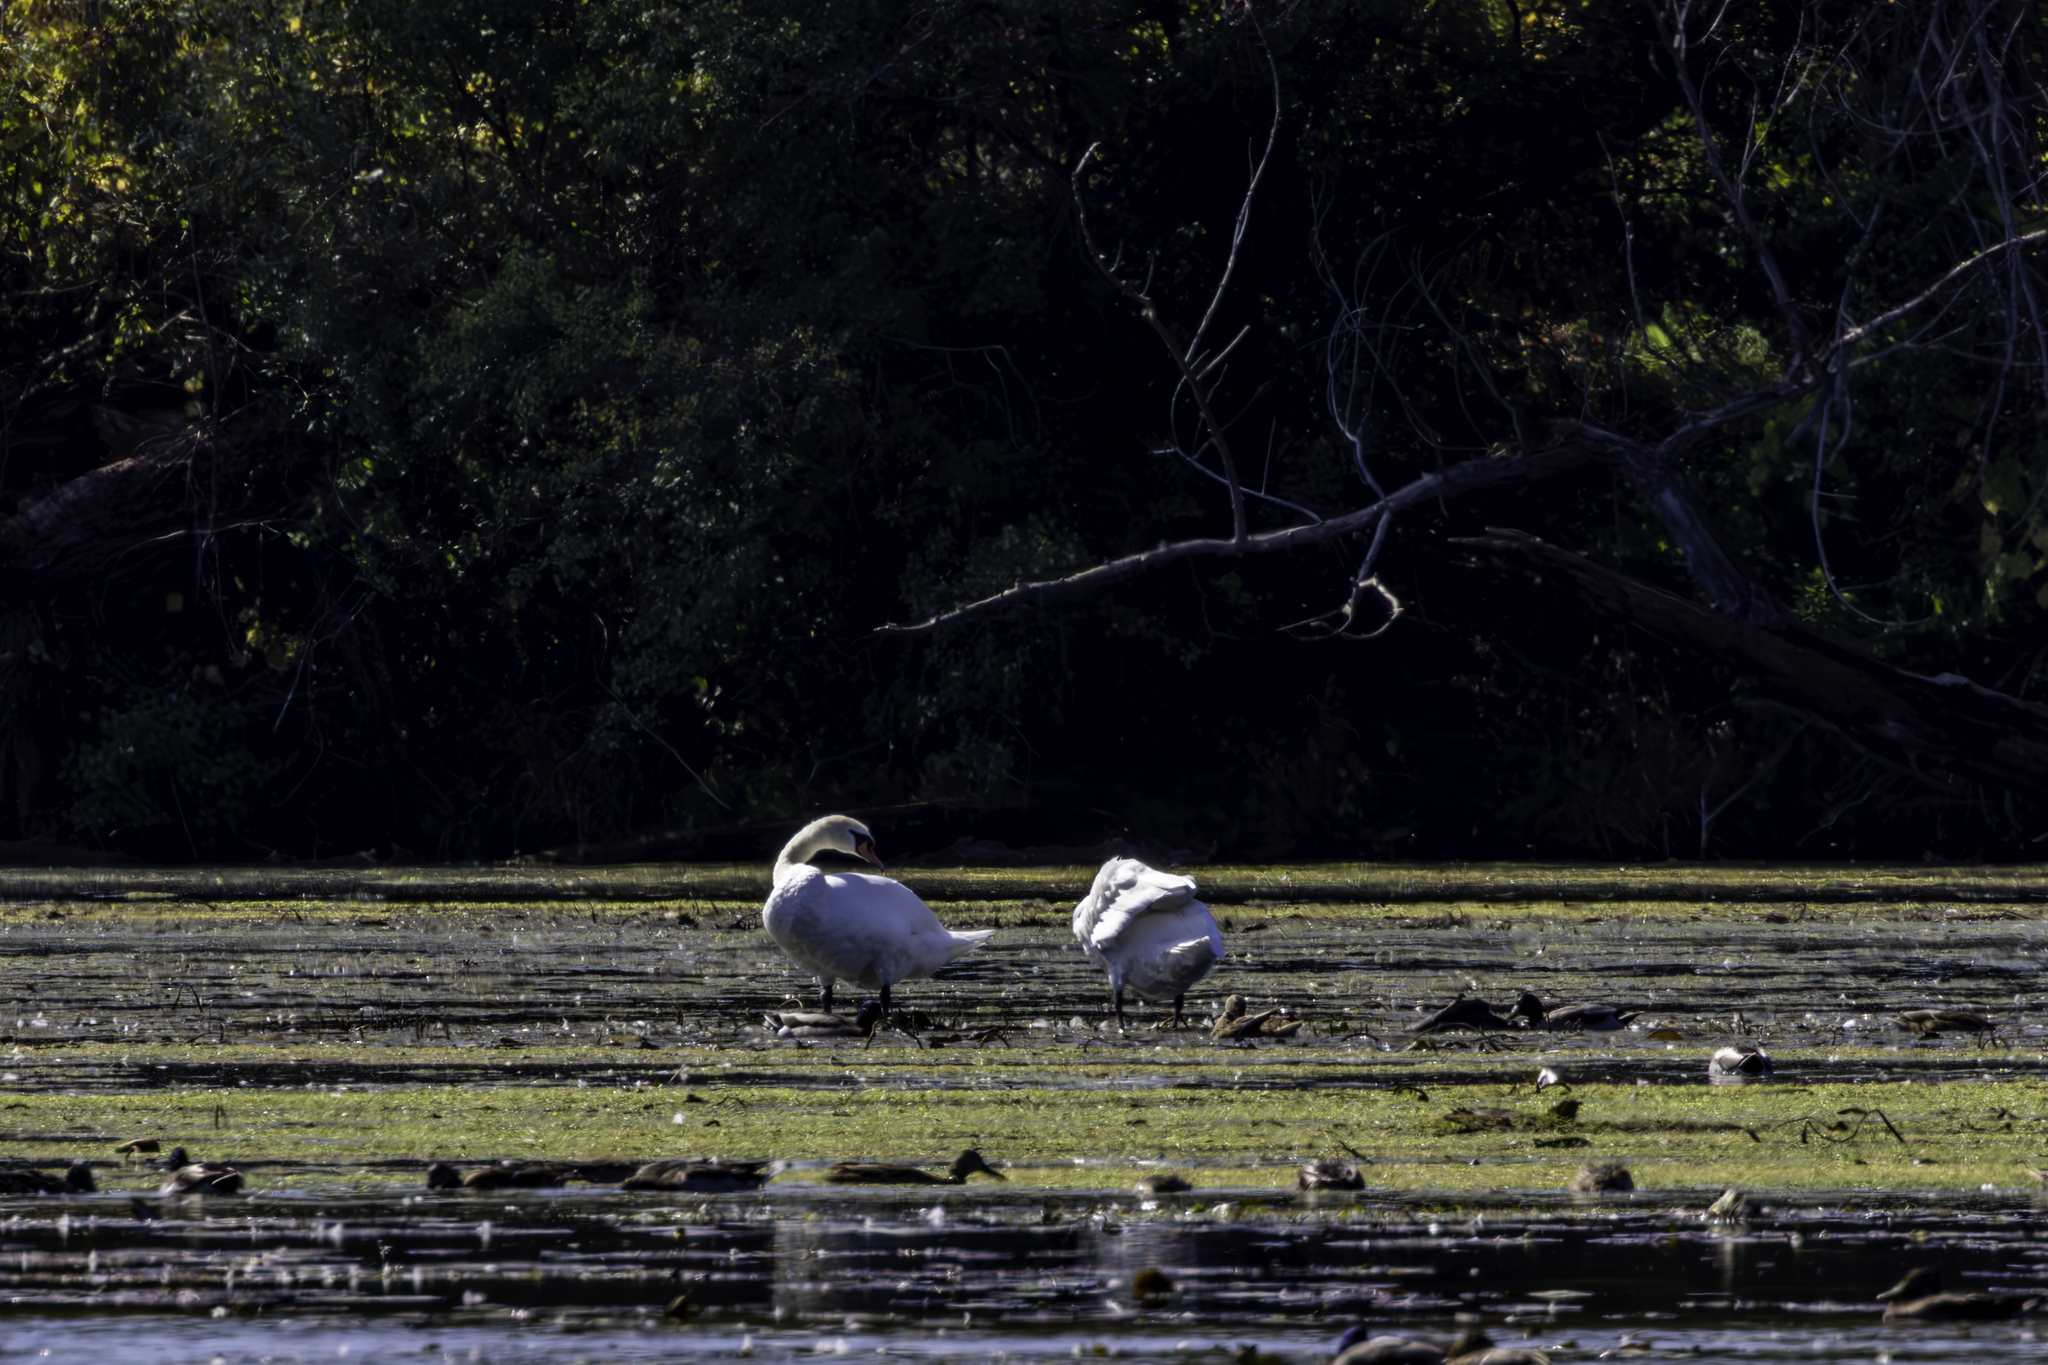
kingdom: Animalia
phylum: Chordata
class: Aves
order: Anseriformes
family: Anatidae
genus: Cygnus
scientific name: Cygnus olor
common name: Mute swan
